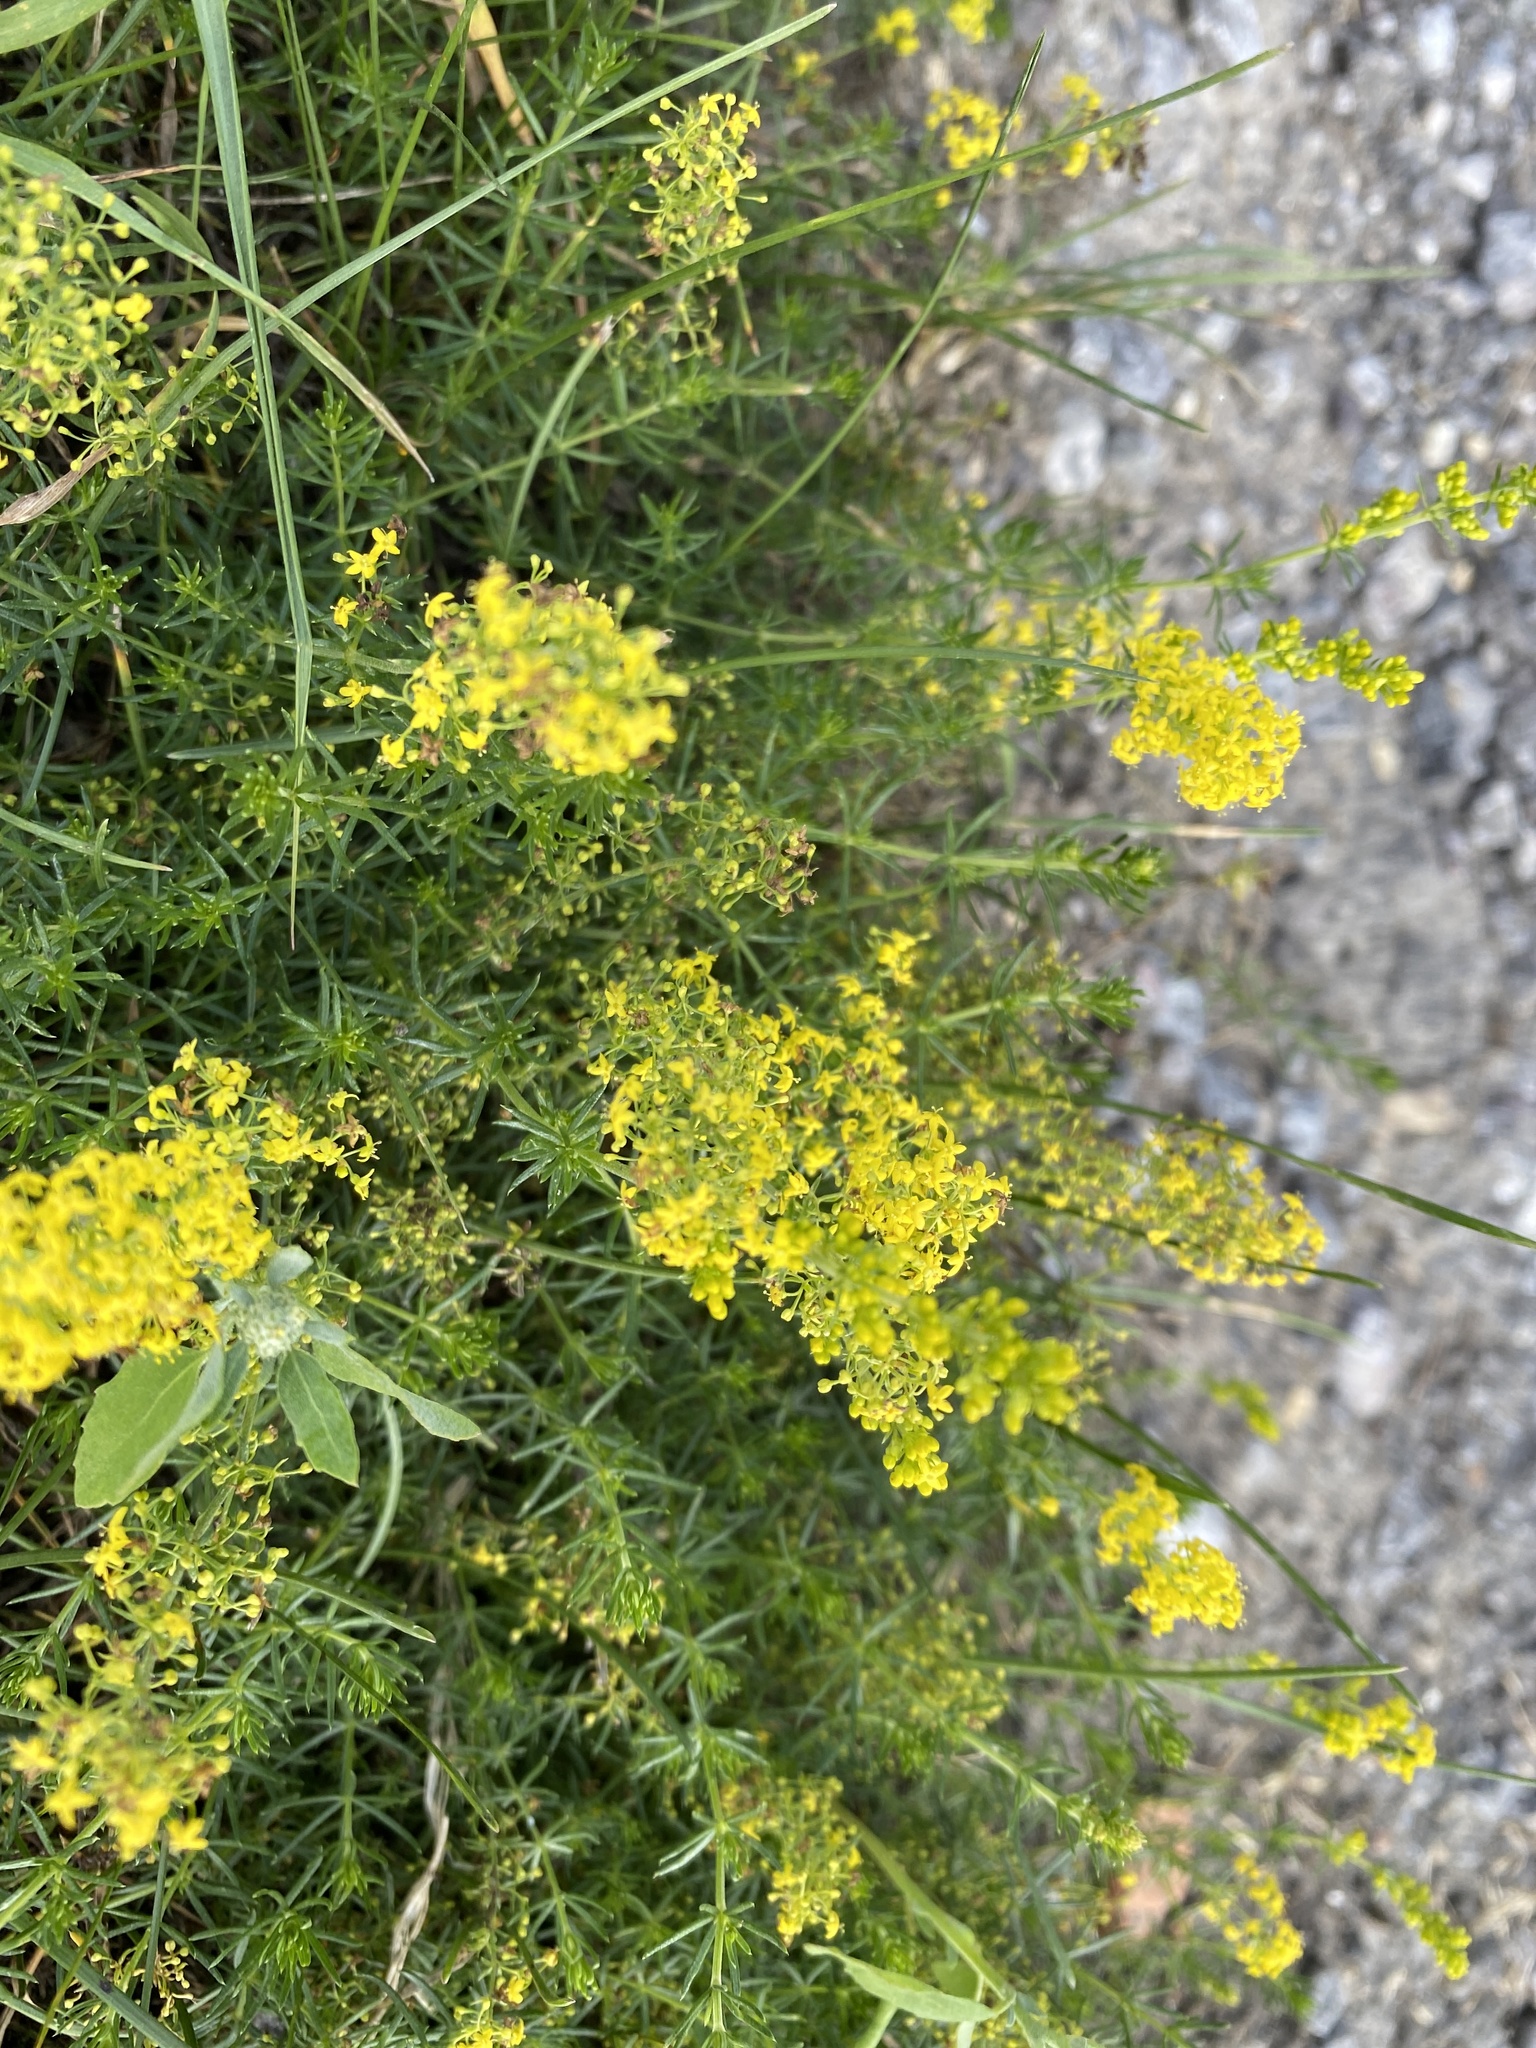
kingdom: Plantae
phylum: Tracheophyta
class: Magnoliopsida
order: Gentianales
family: Rubiaceae
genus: Galium
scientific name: Galium verum
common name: Lady's bedstraw
